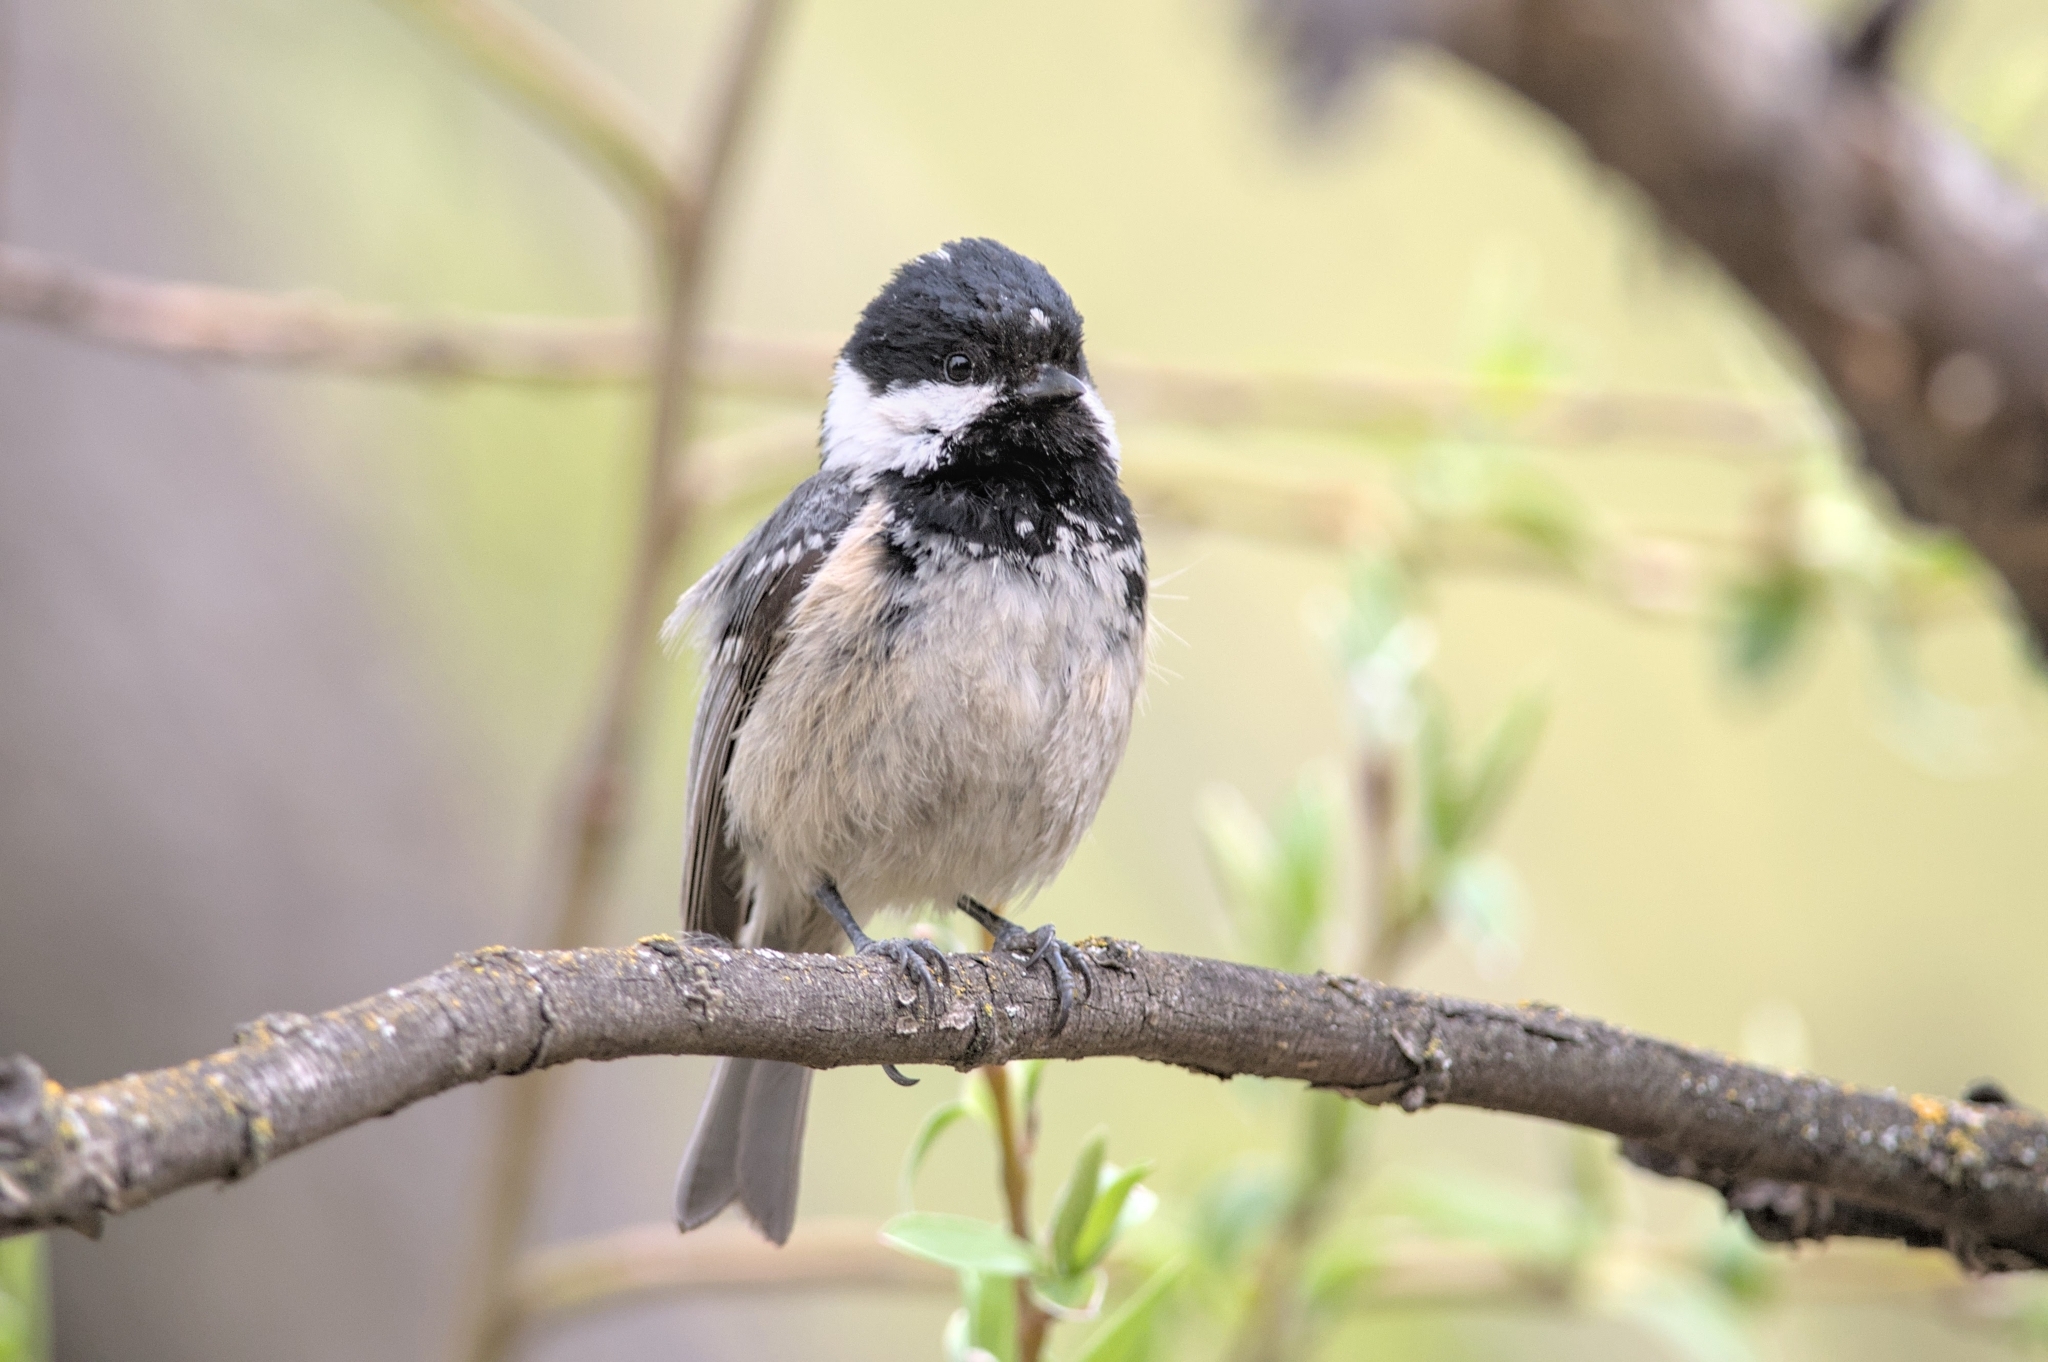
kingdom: Animalia
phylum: Chordata
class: Aves
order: Passeriformes
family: Paridae
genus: Periparus
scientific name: Periparus ater
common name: Coal tit
